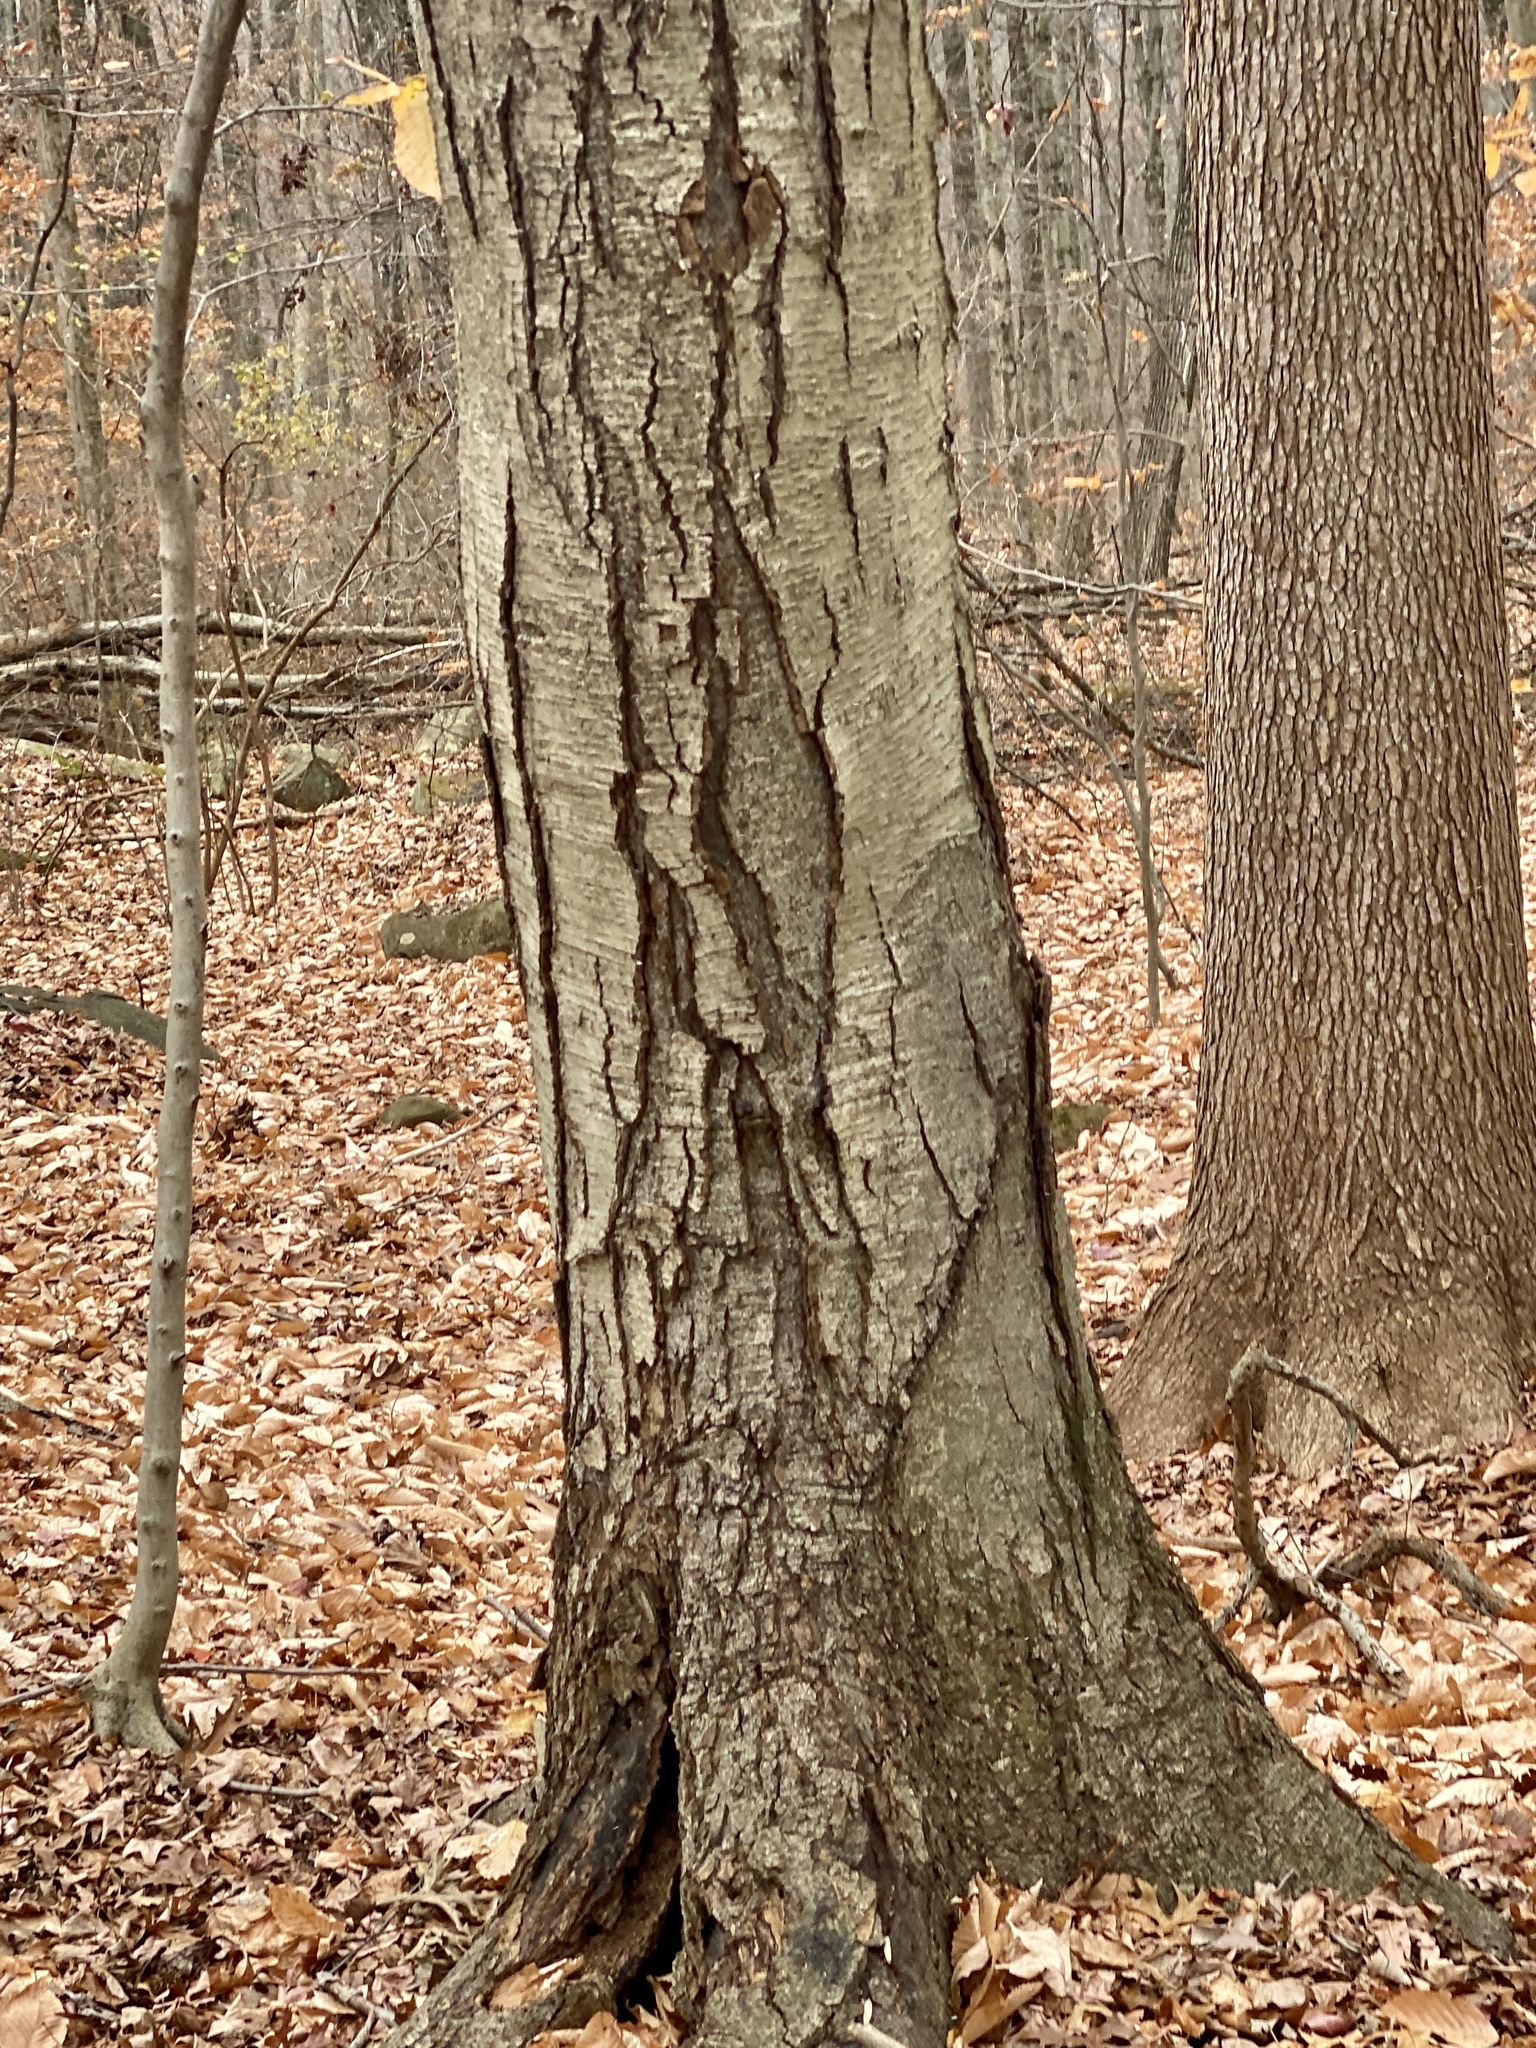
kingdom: Plantae
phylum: Tracheophyta
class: Magnoliopsida
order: Fagales
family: Betulaceae
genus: Betula
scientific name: Betula lenta
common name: Black birch
